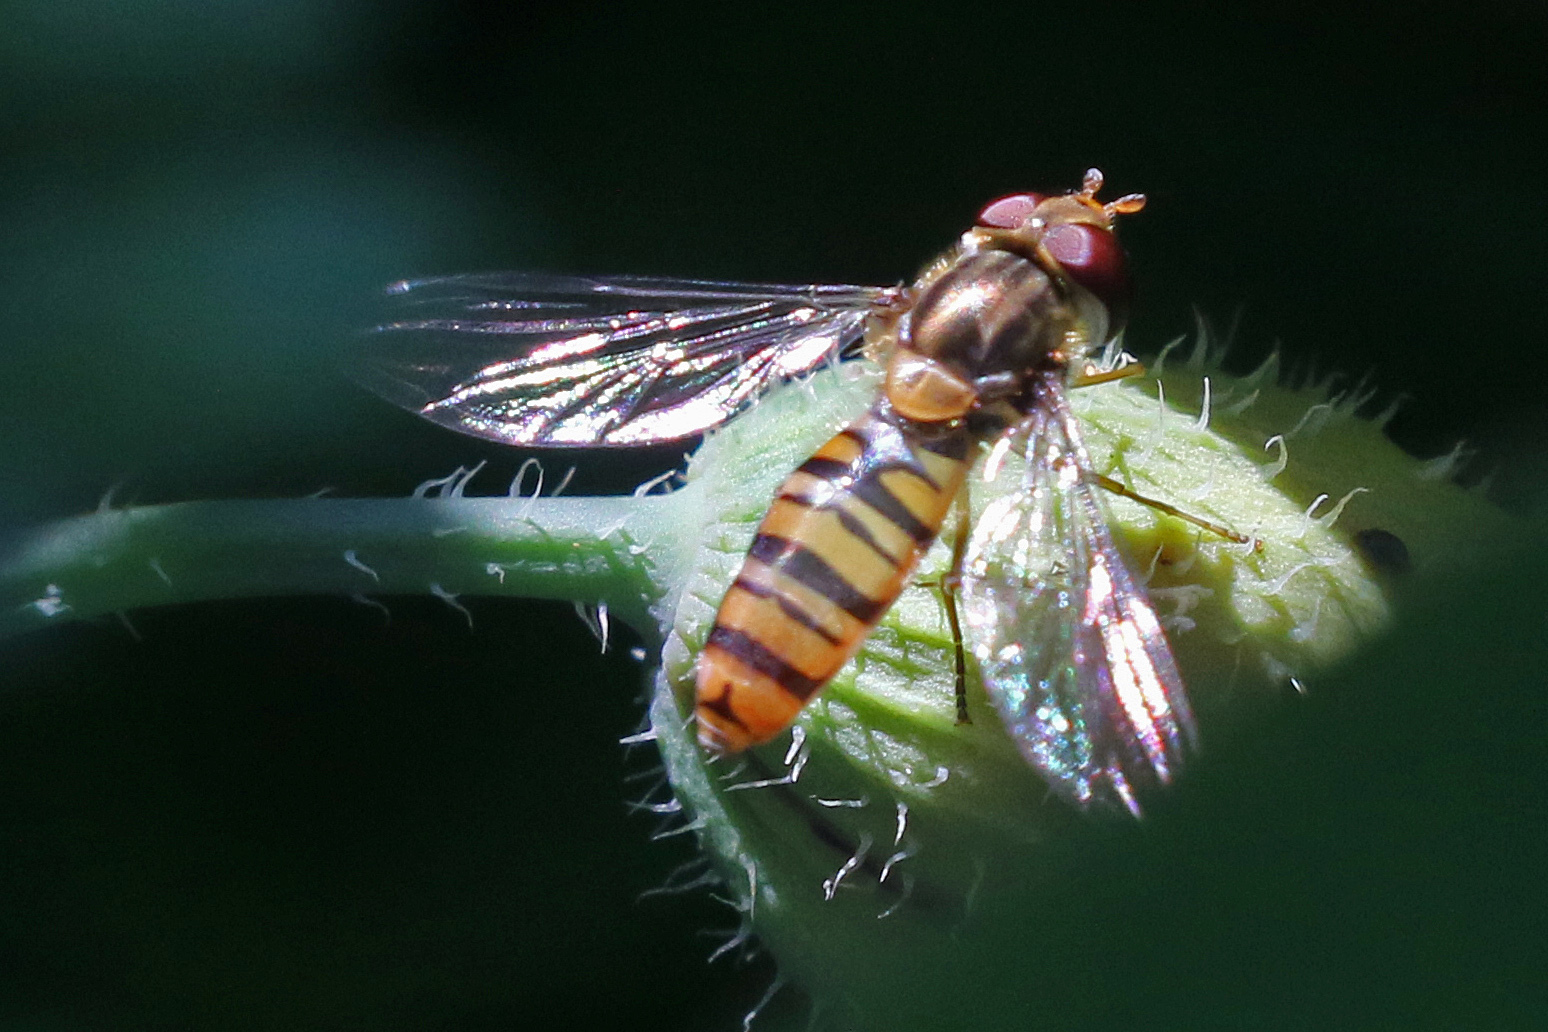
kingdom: Animalia
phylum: Arthropoda
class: Insecta
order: Diptera
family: Syrphidae
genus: Episyrphus
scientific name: Episyrphus balteatus
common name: Marmalade hoverfly
